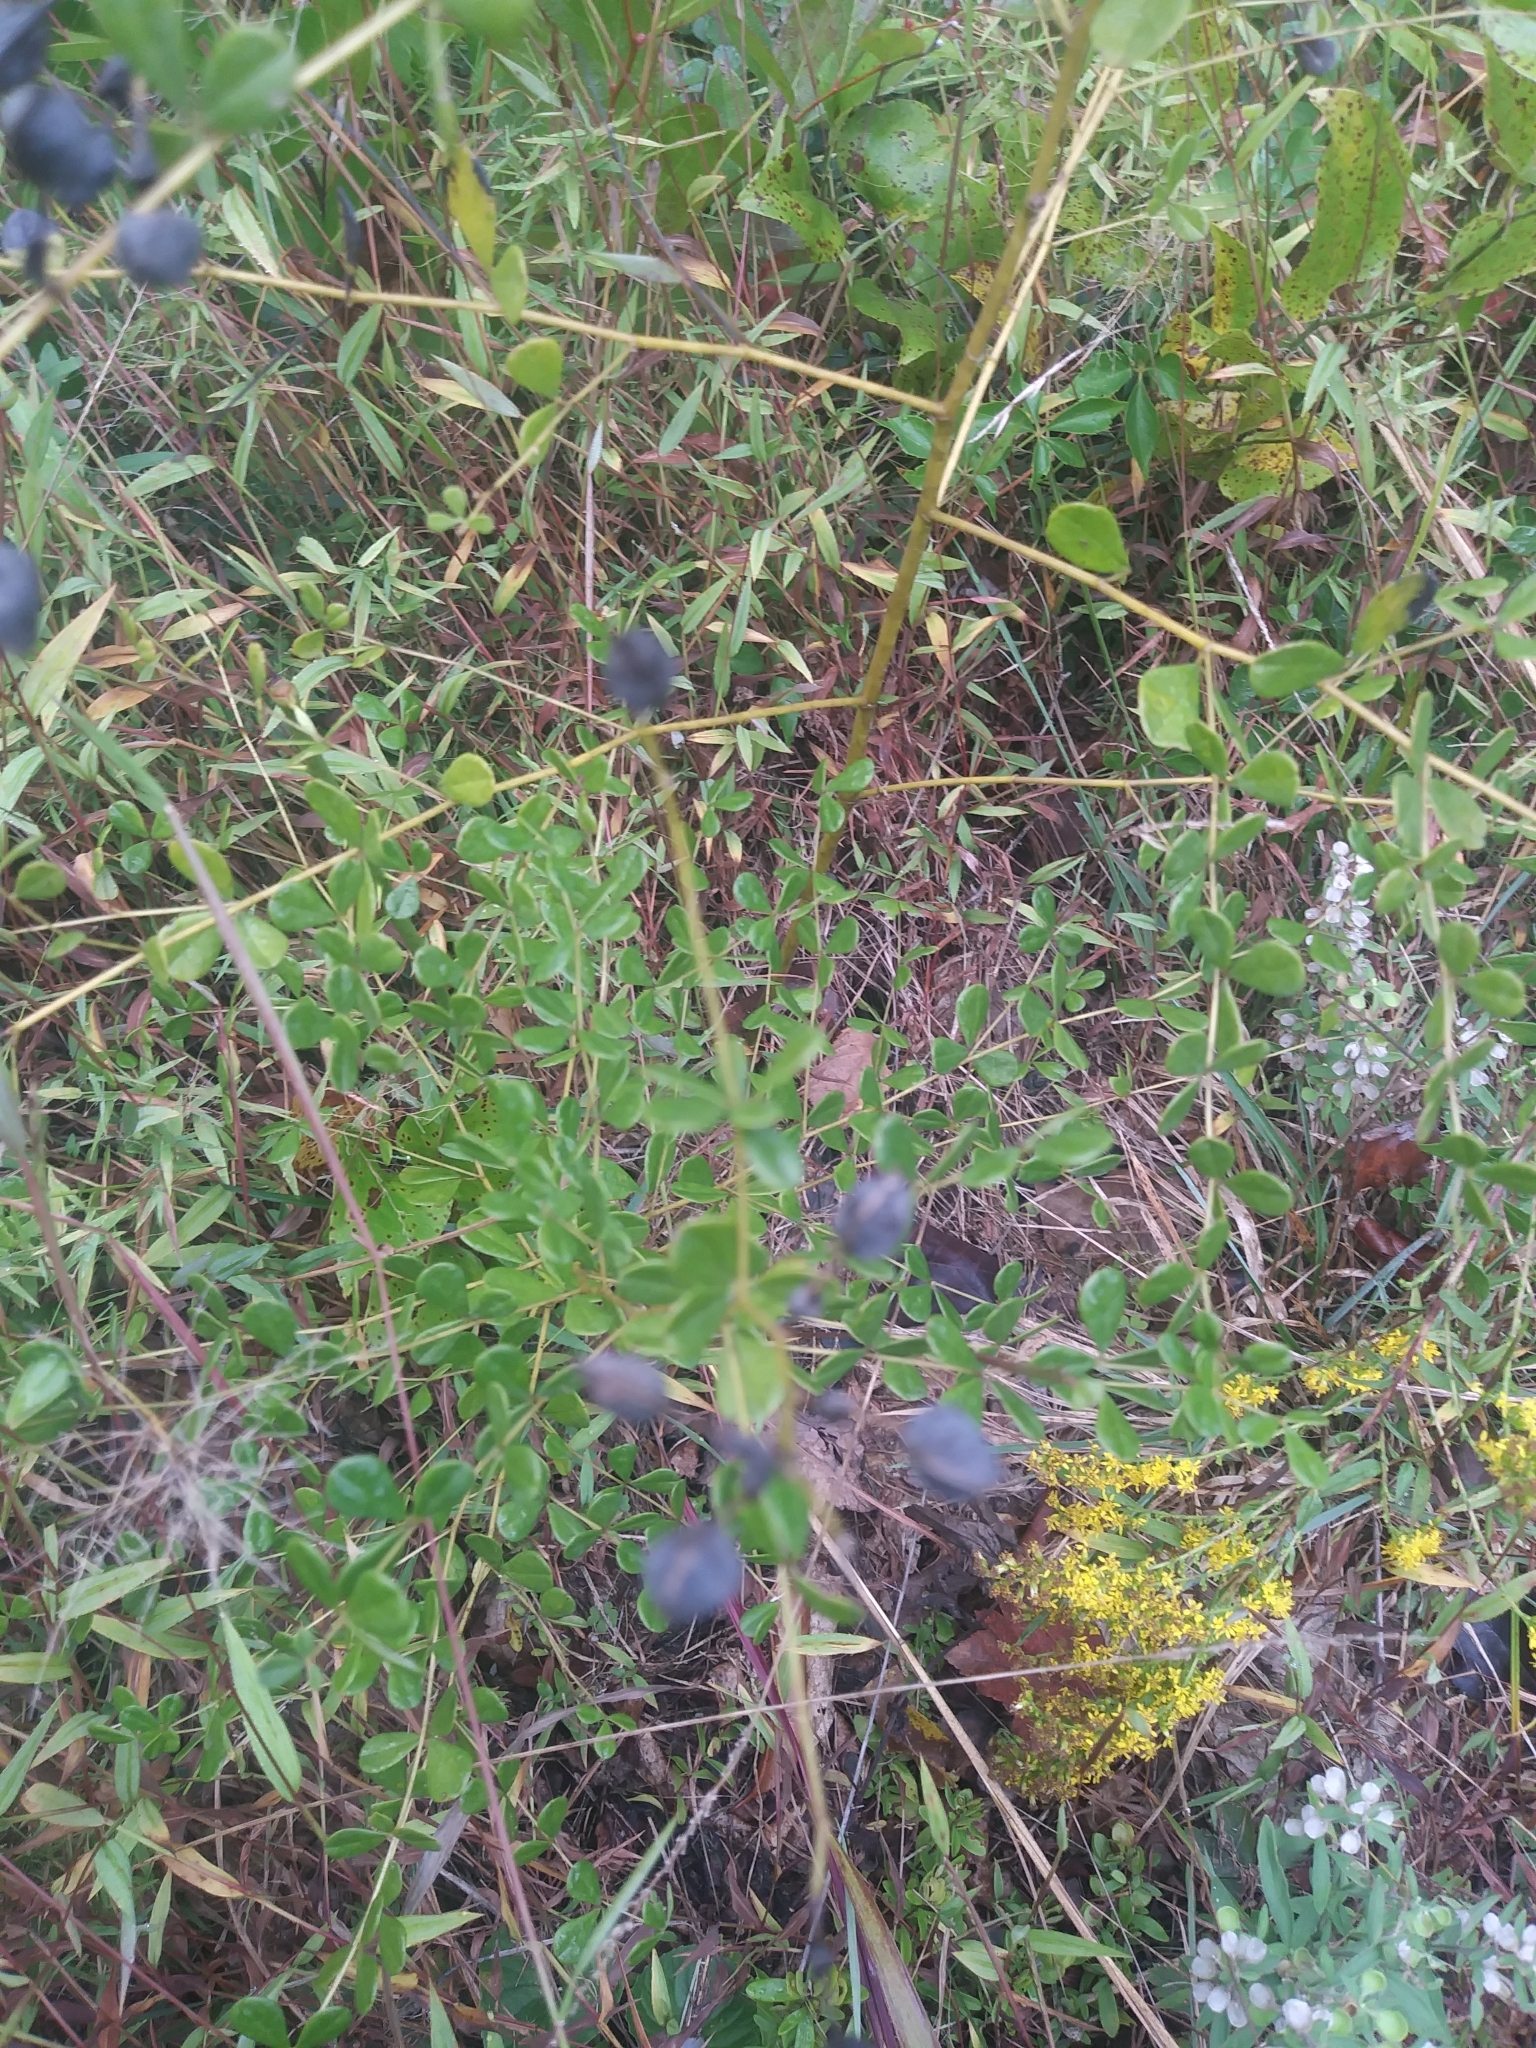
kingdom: Plantae
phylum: Tracheophyta
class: Magnoliopsida
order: Fabales
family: Fabaceae
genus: Baptisia
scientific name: Baptisia tinctoria
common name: Wild indigo
